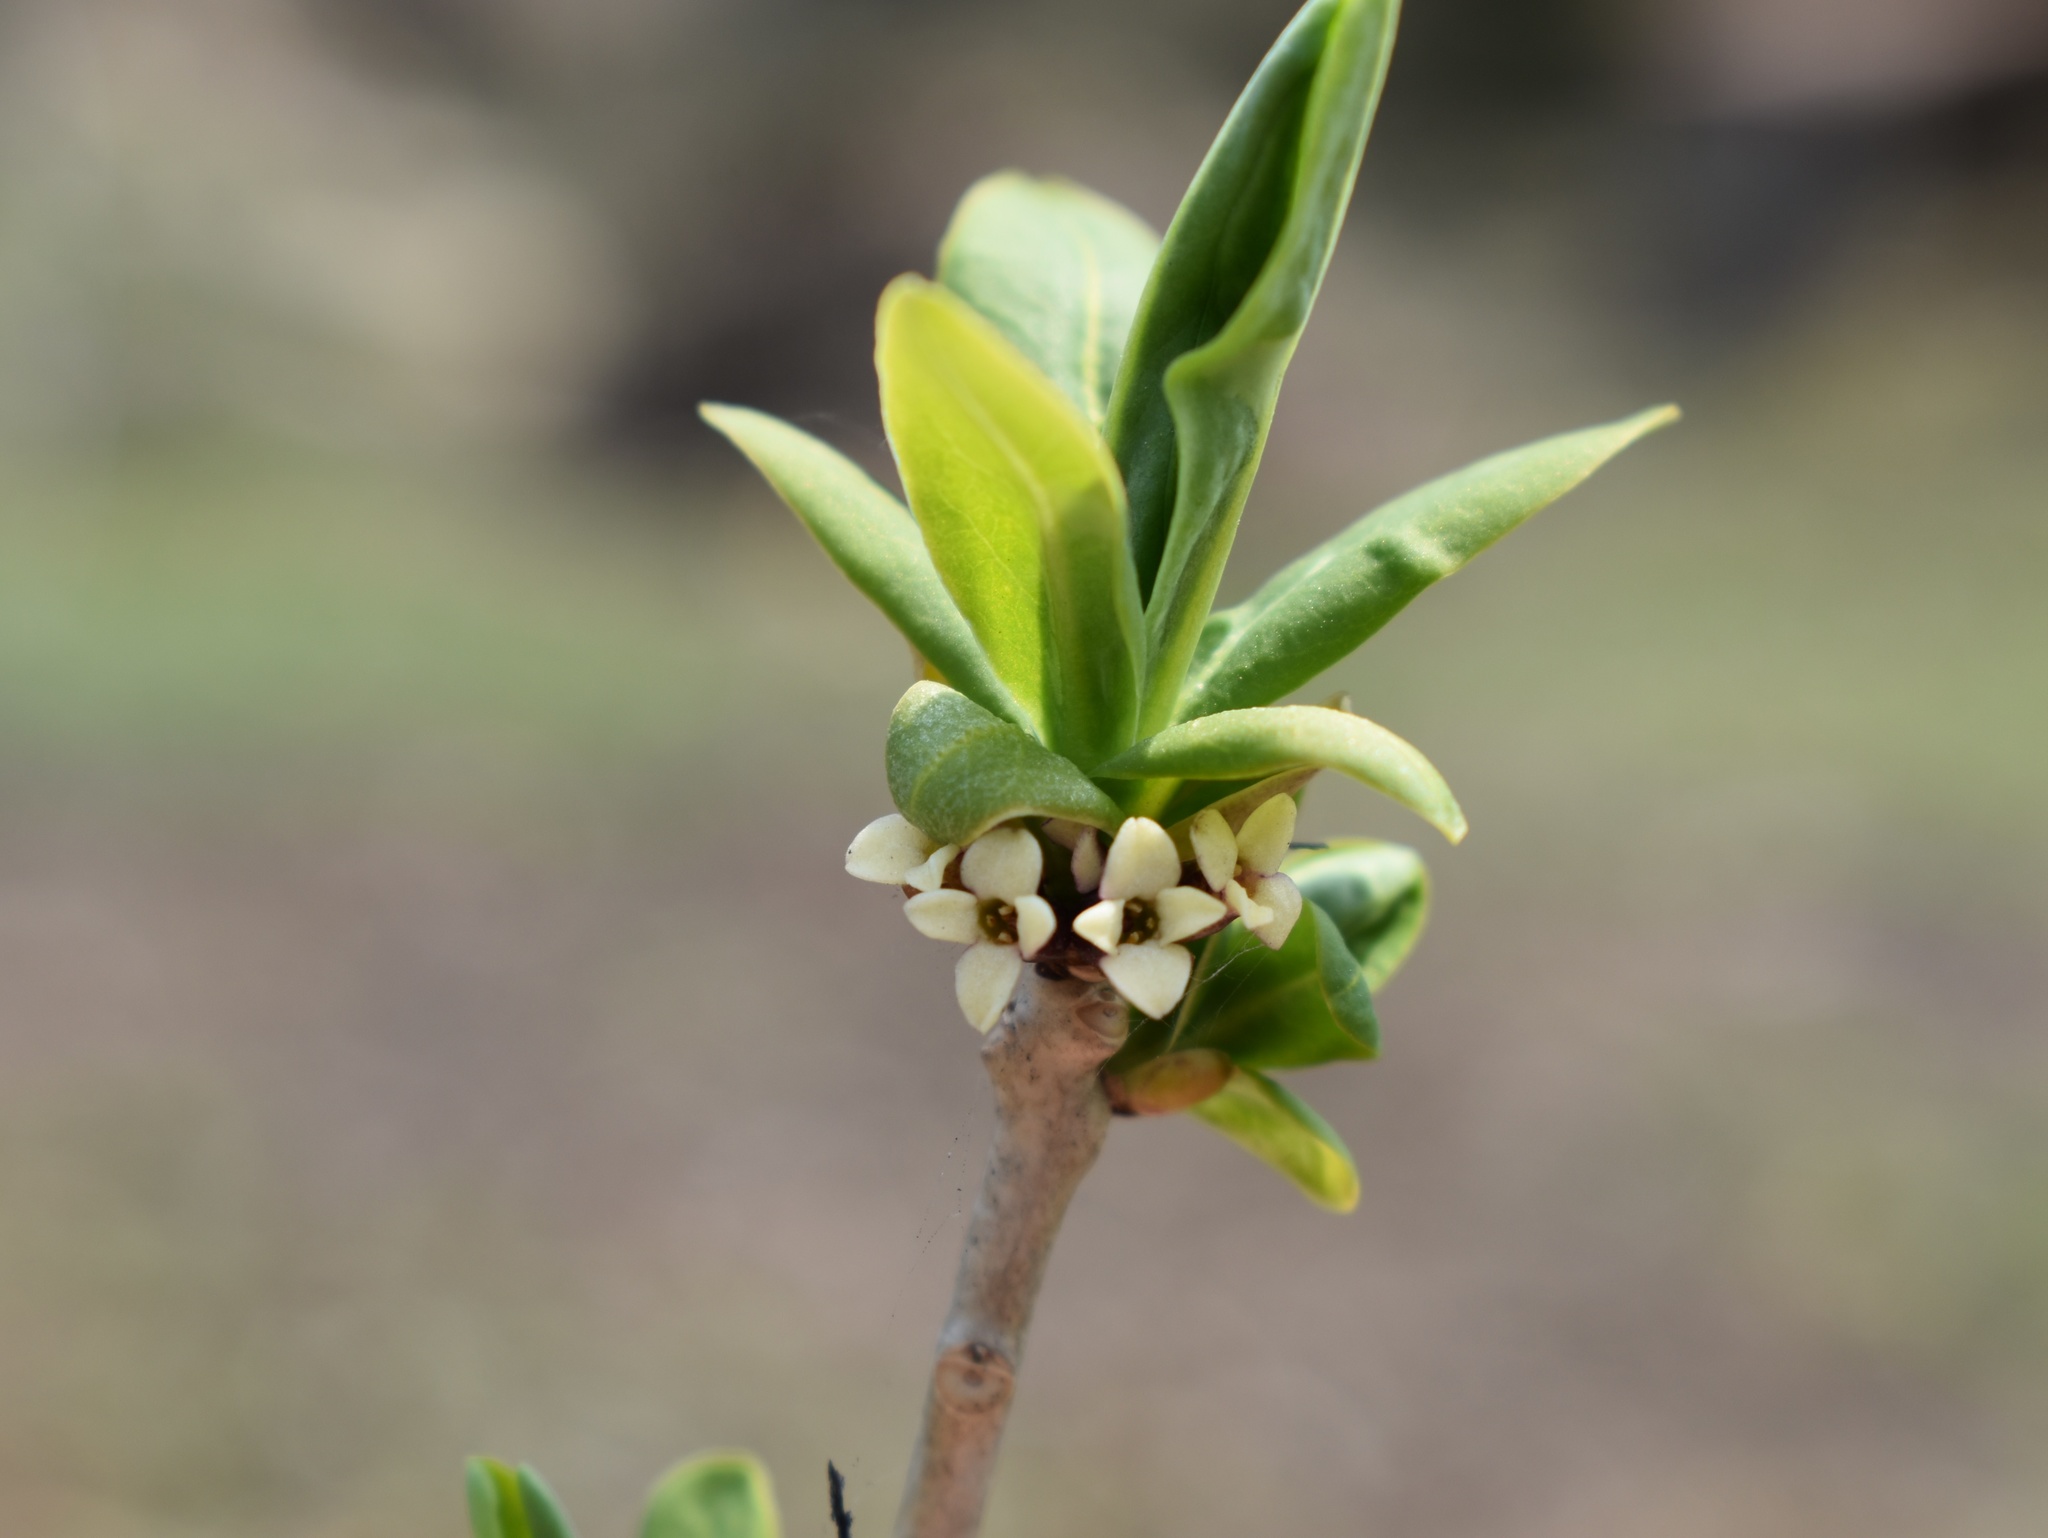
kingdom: Plantae
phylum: Tracheophyta
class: Magnoliopsida
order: Malvales
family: Thymelaeaceae
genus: Daphne
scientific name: Daphne kamtschatica
